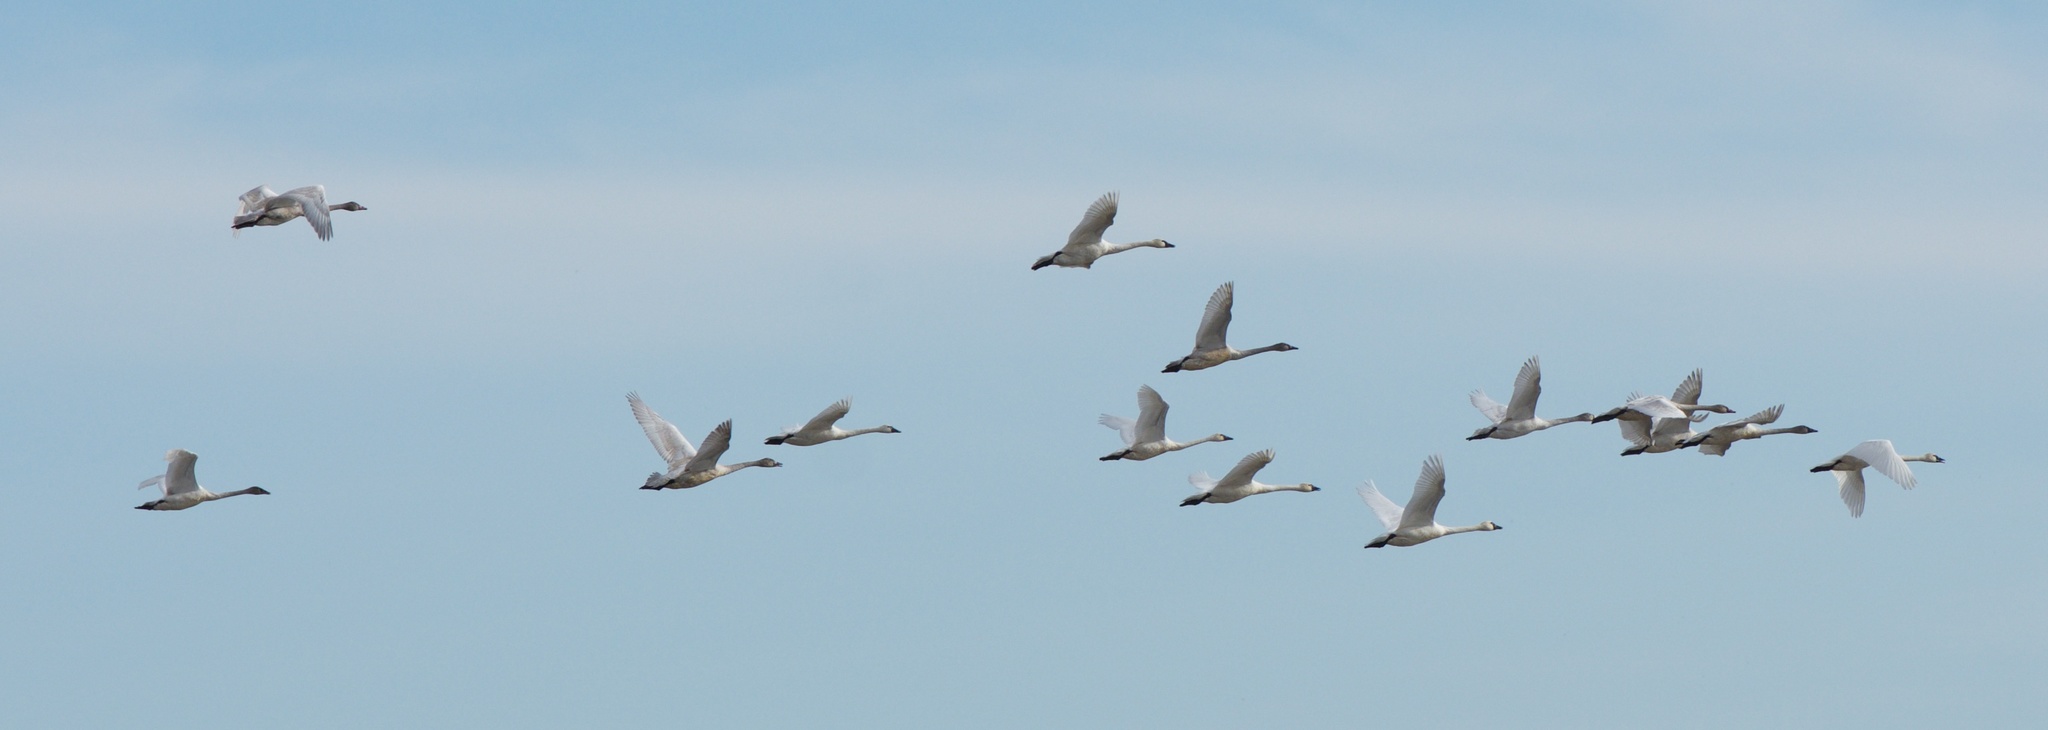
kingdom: Animalia
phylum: Chordata
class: Aves
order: Anseriformes
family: Anatidae
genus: Cygnus
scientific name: Cygnus columbianus
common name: Tundra swan
